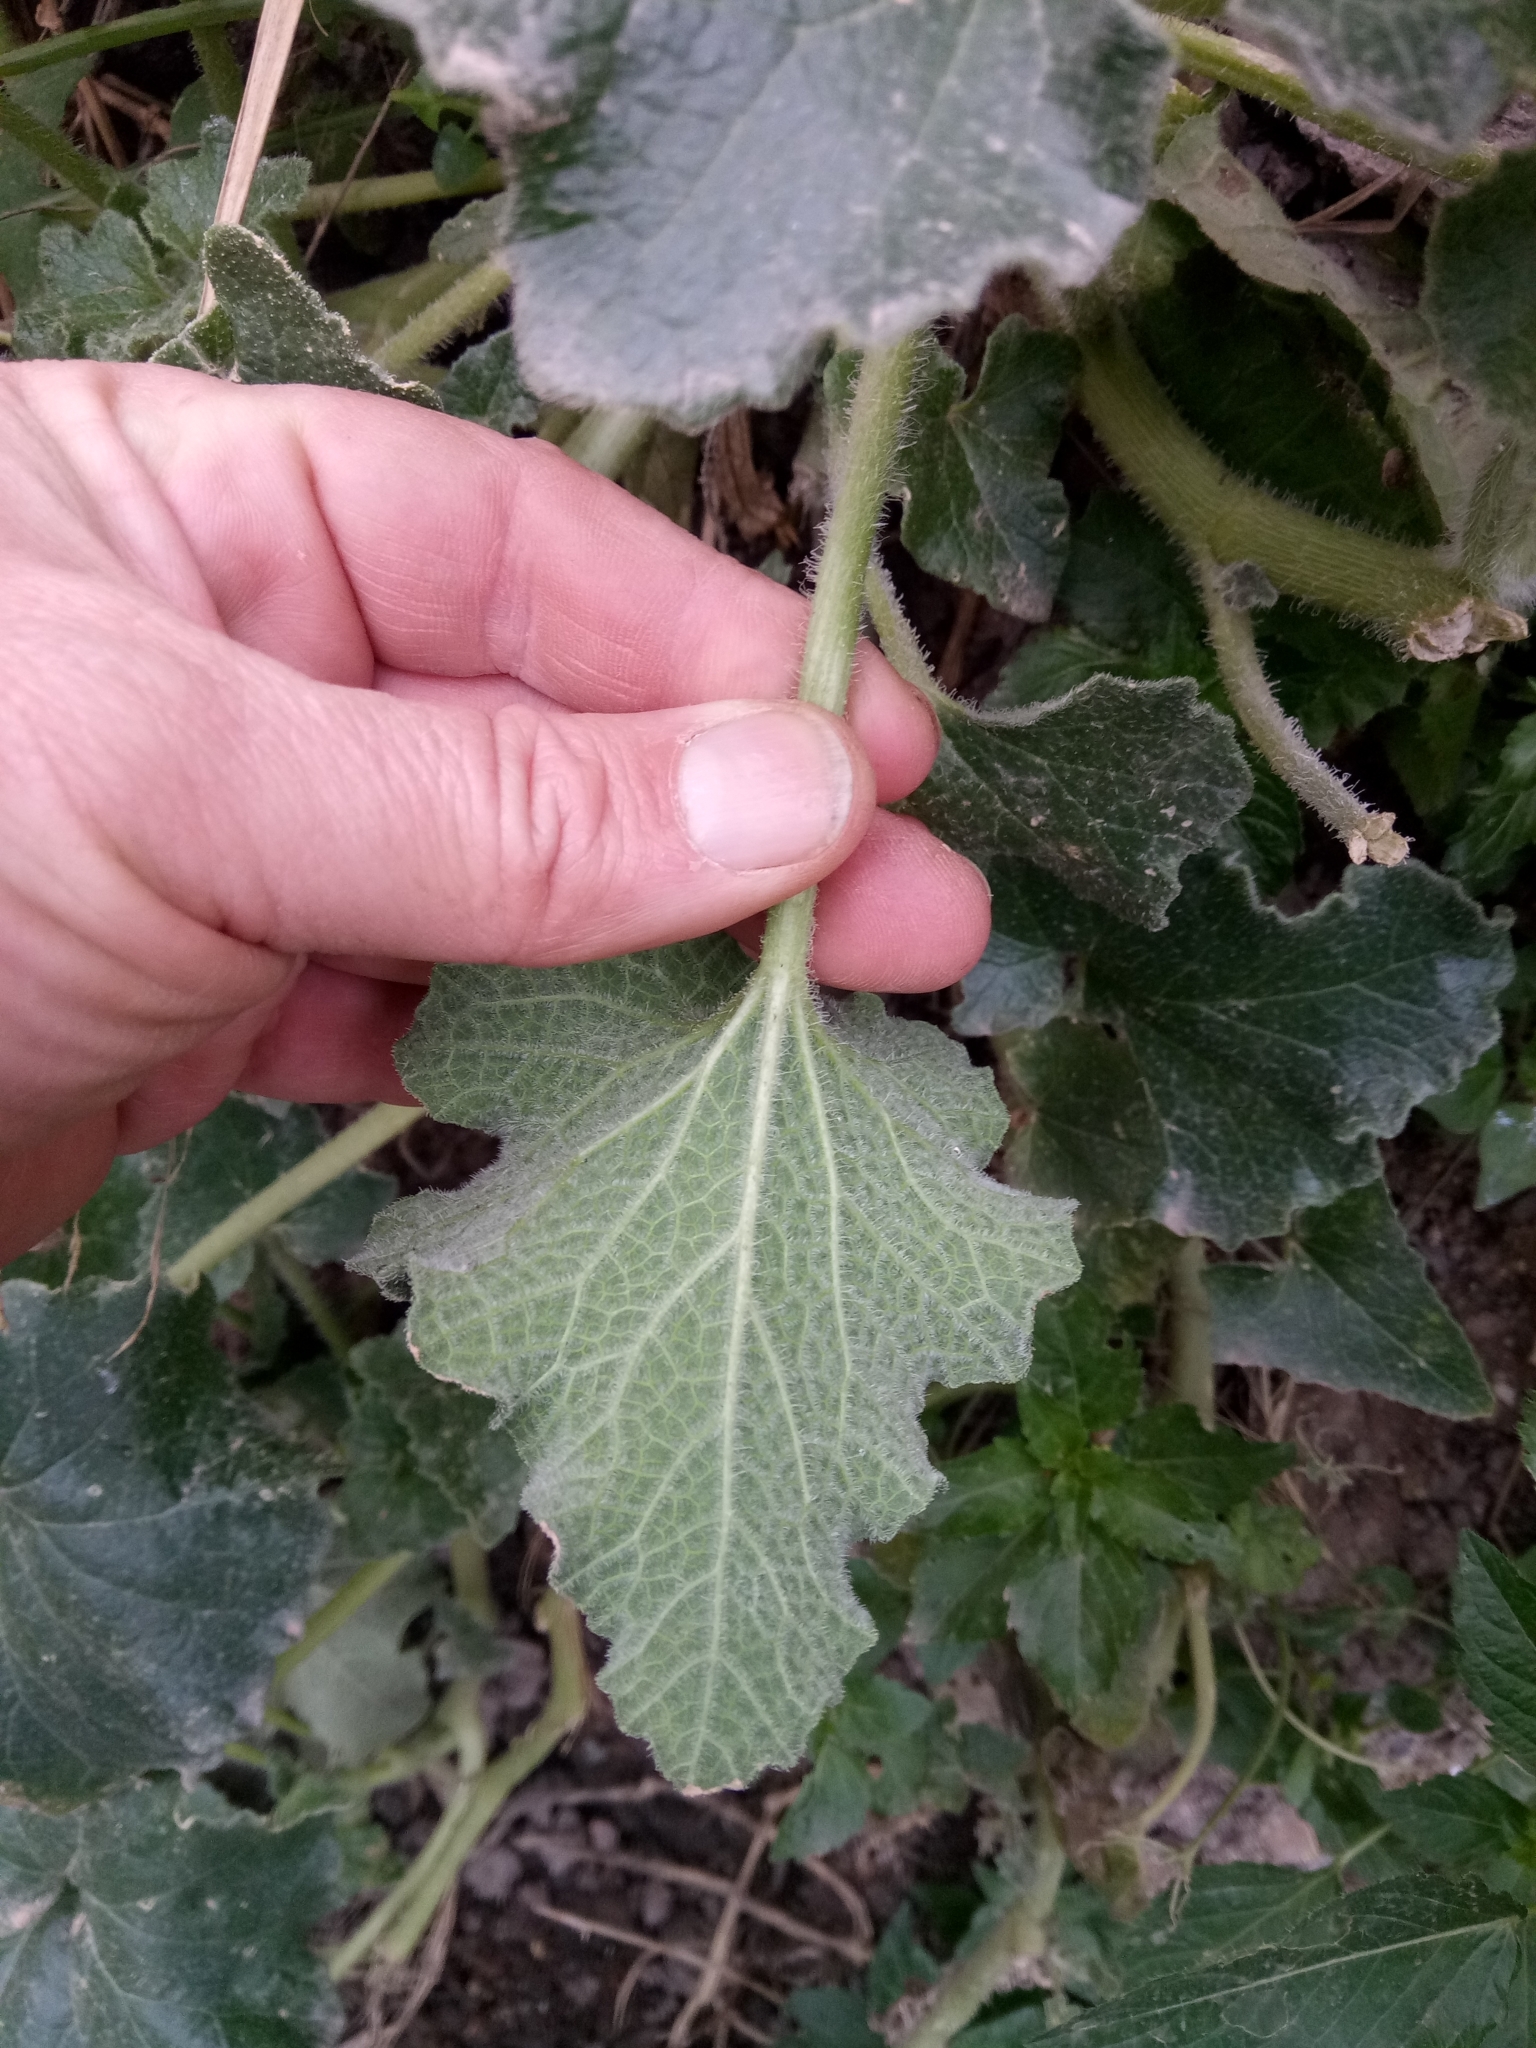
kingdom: Plantae
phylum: Tracheophyta
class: Magnoliopsida
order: Cucurbitales
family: Cucurbitaceae
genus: Ecballium
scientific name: Ecballium elaterium
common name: Squirting cucumber
